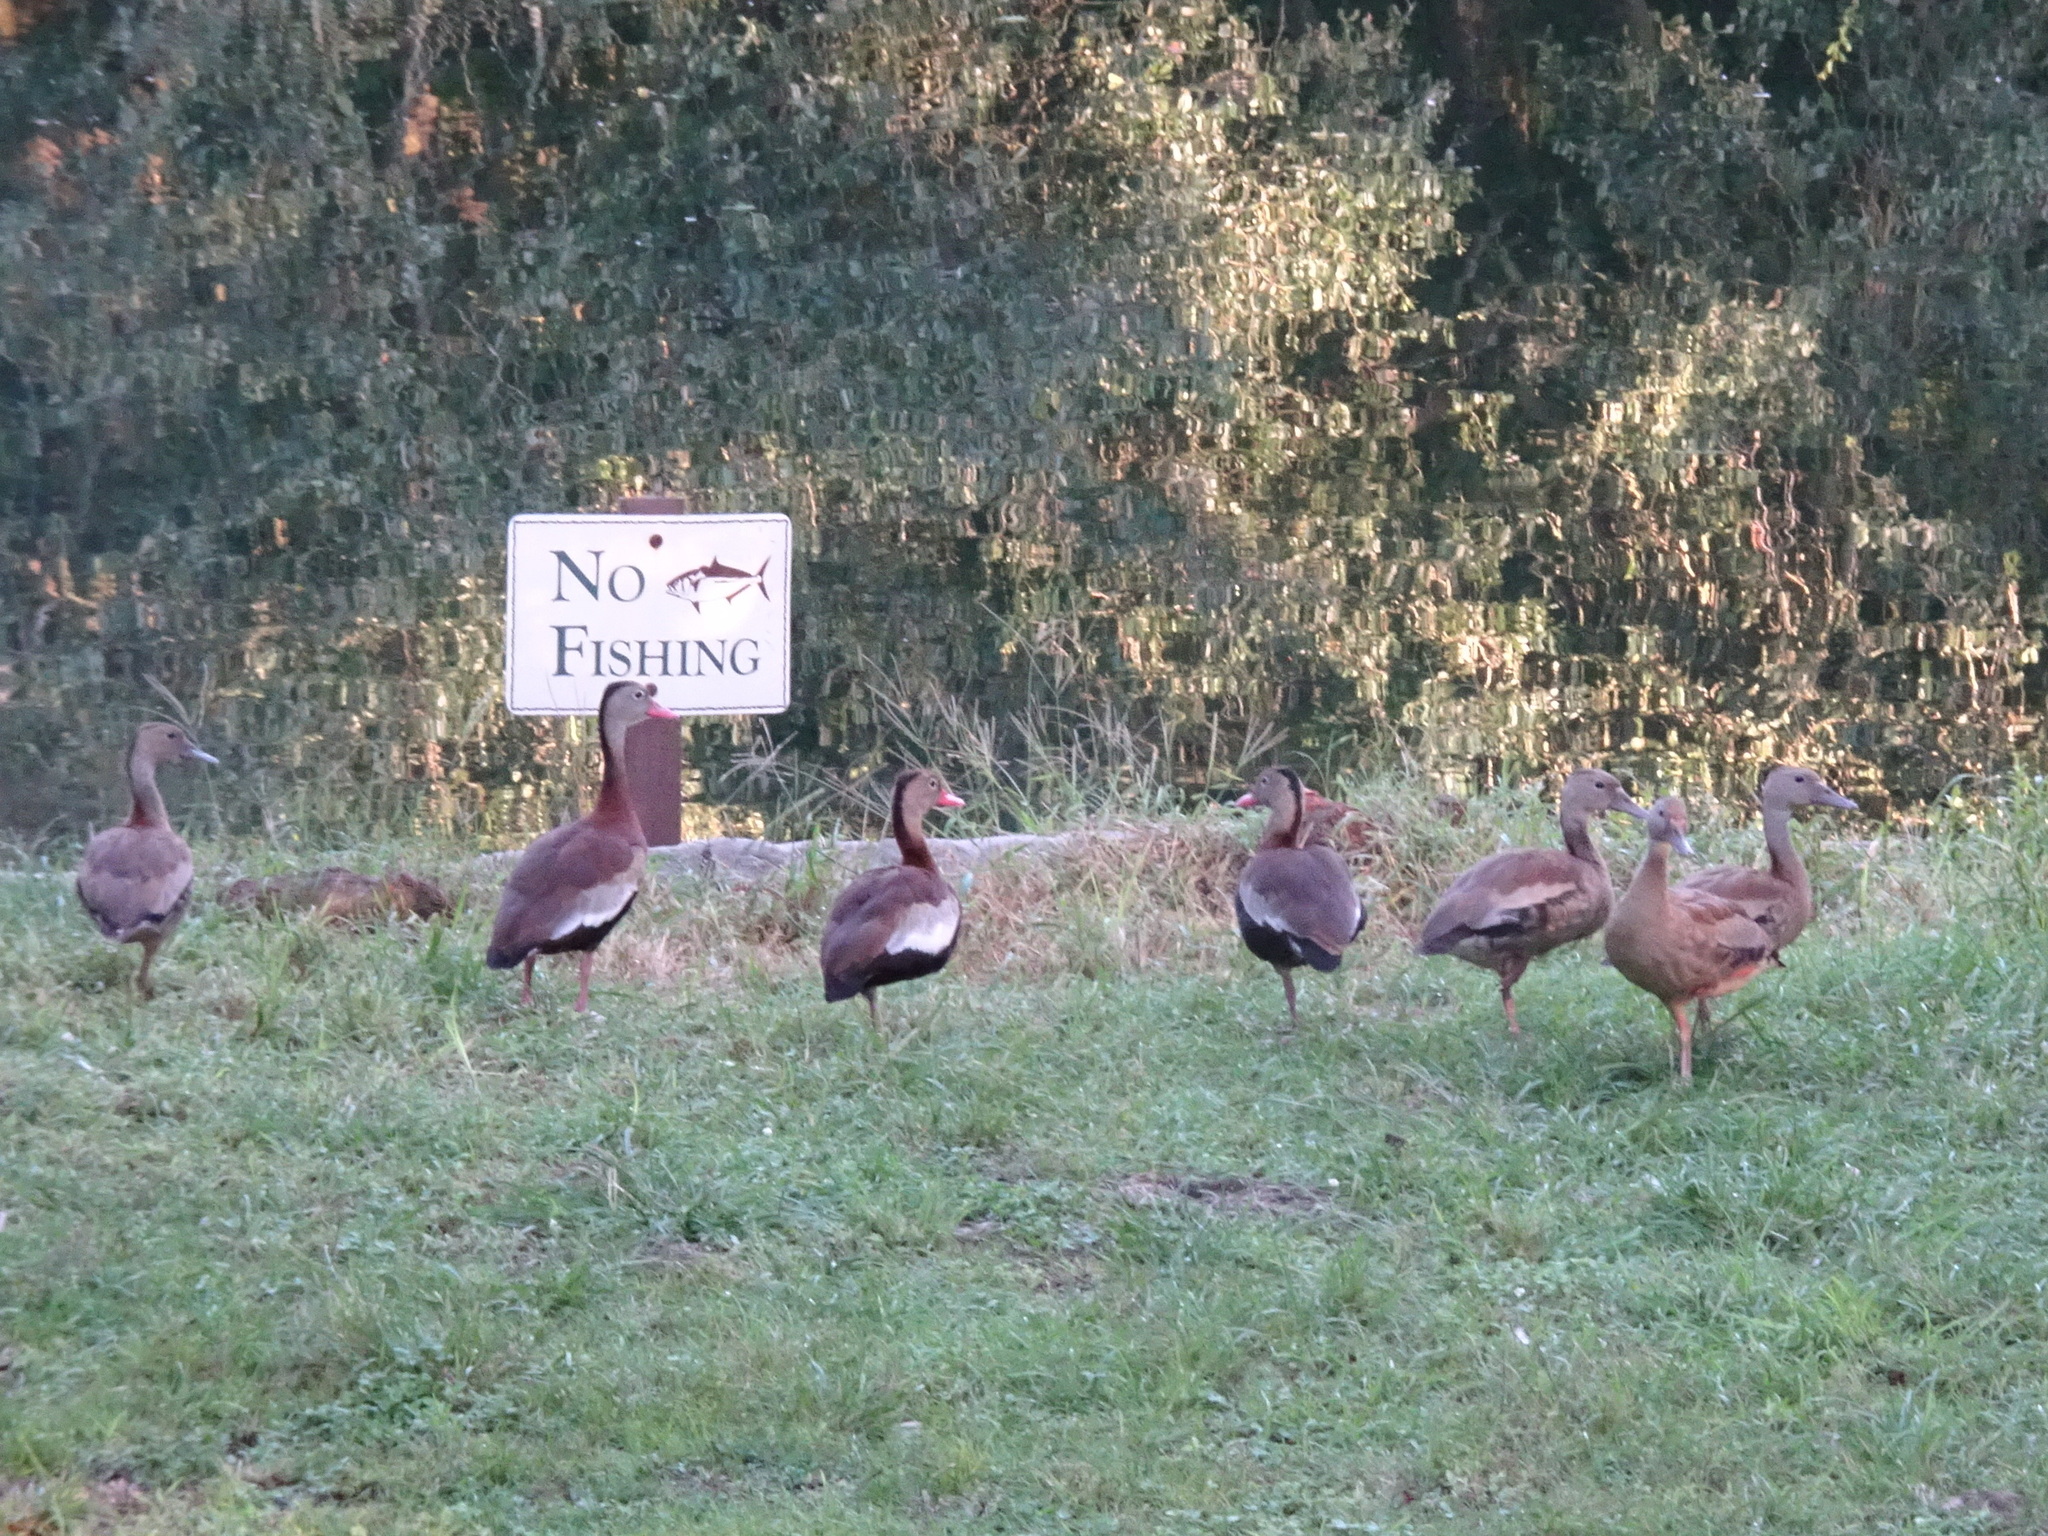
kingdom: Animalia
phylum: Chordata
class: Aves
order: Anseriformes
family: Anatidae
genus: Dendrocygna
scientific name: Dendrocygna autumnalis
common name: Black-bellied whistling duck
